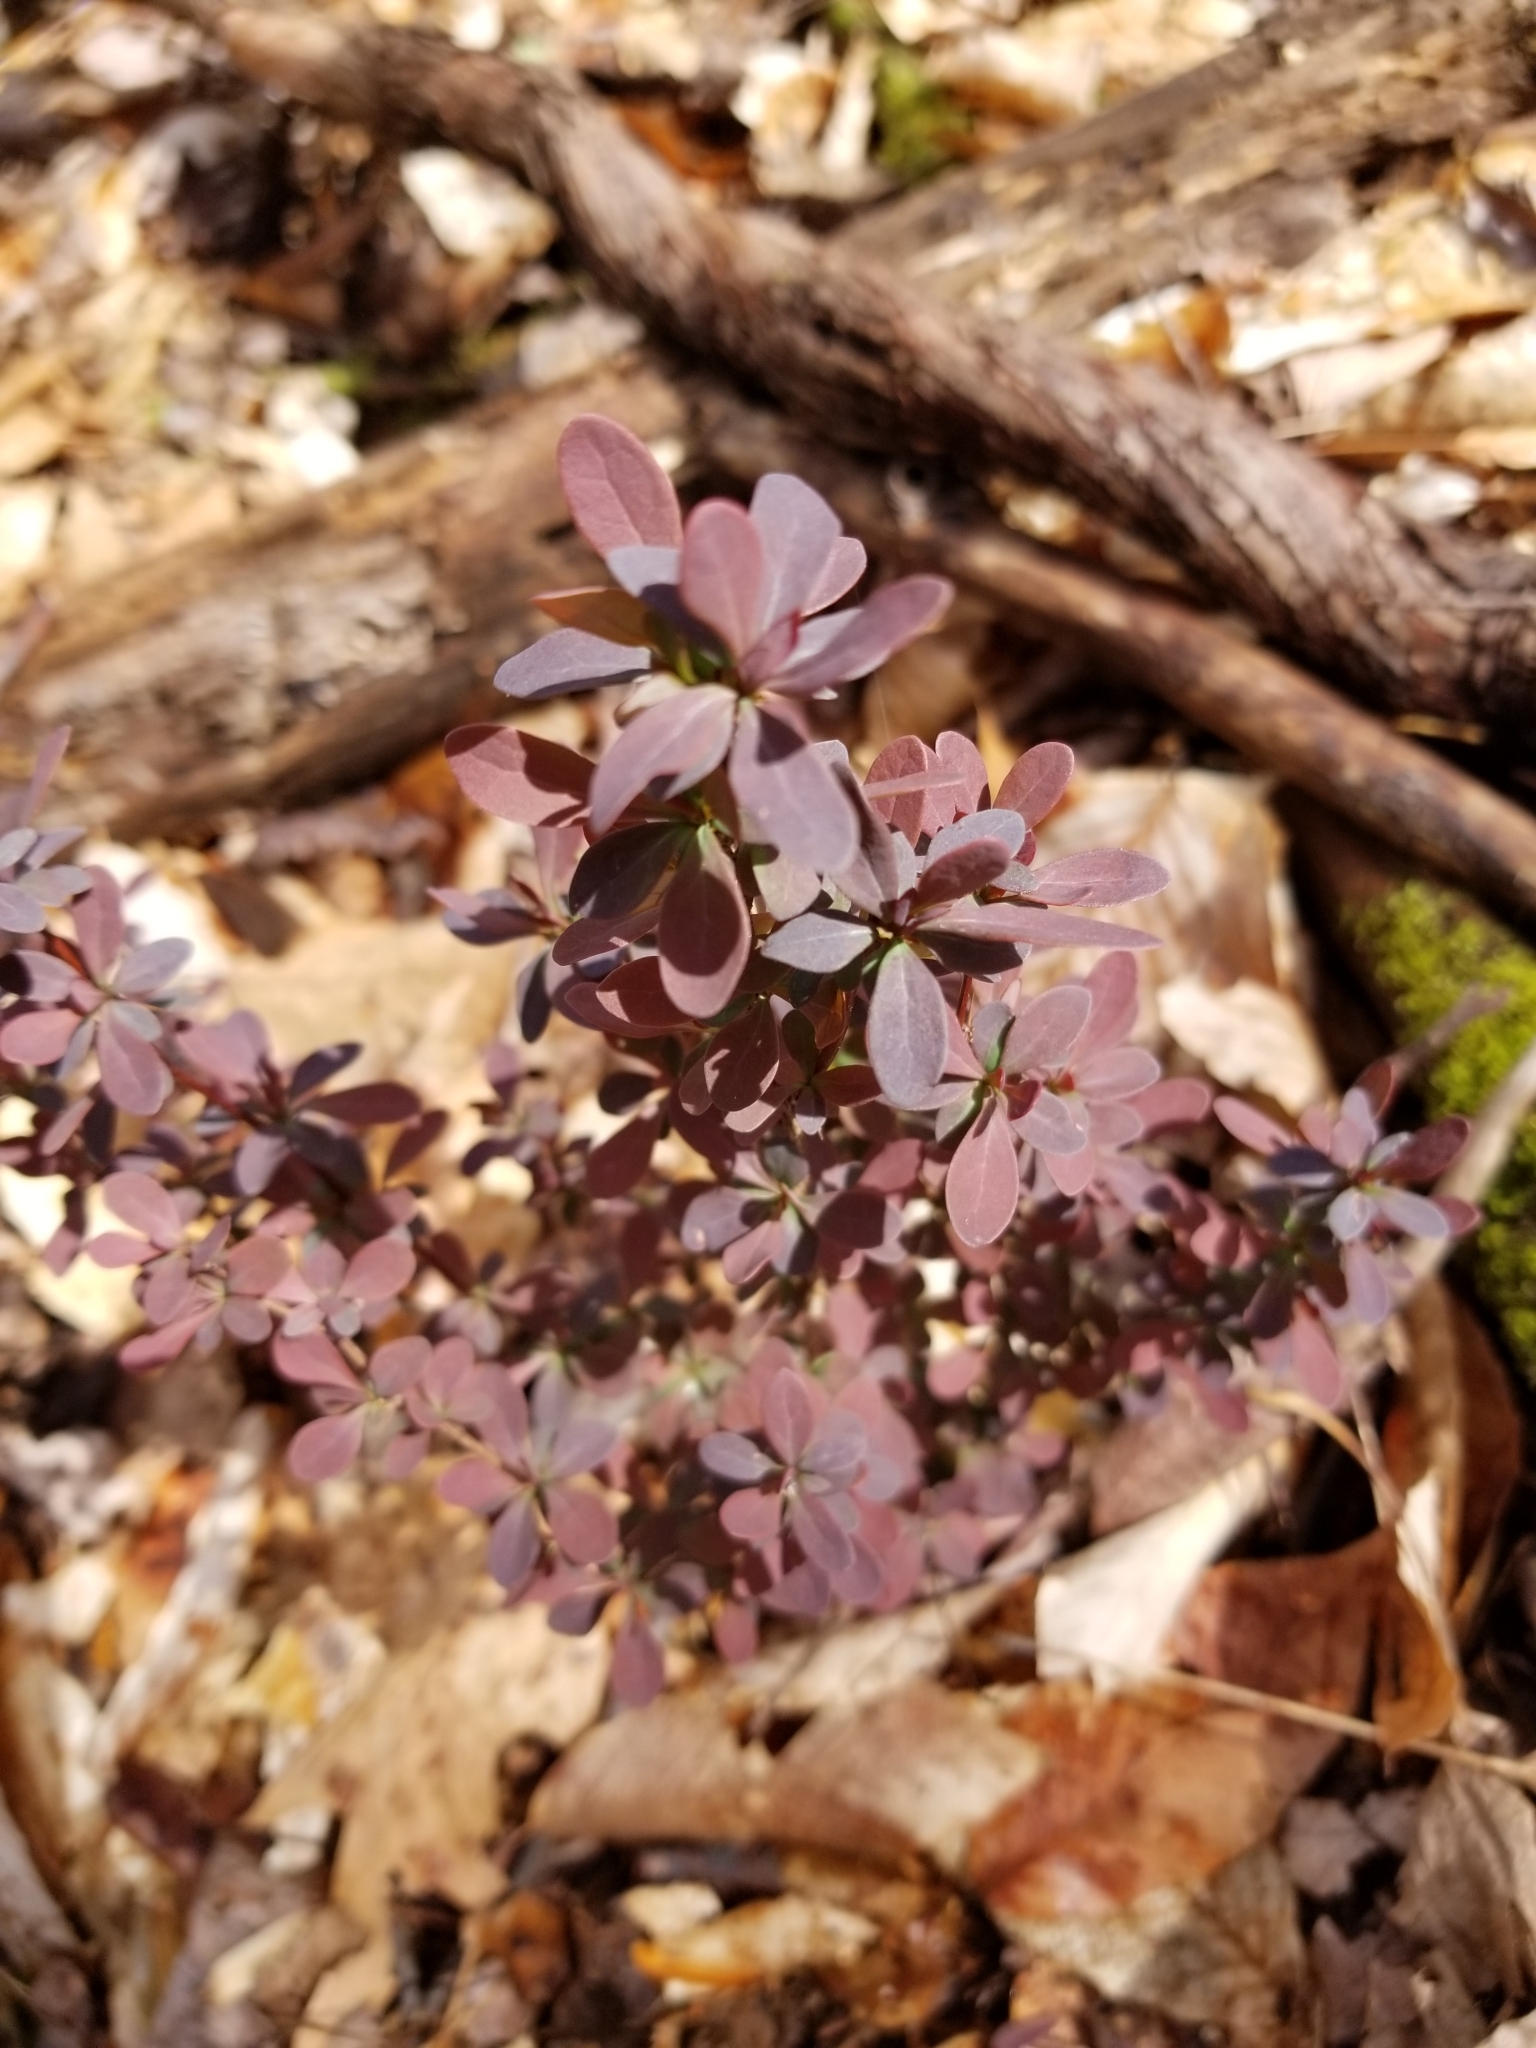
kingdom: Plantae
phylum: Tracheophyta
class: Magnoliopsida
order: Ranunculales
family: Berberidaceae
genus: Berberis
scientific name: Berberis thunbergii
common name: Japanese barberry
